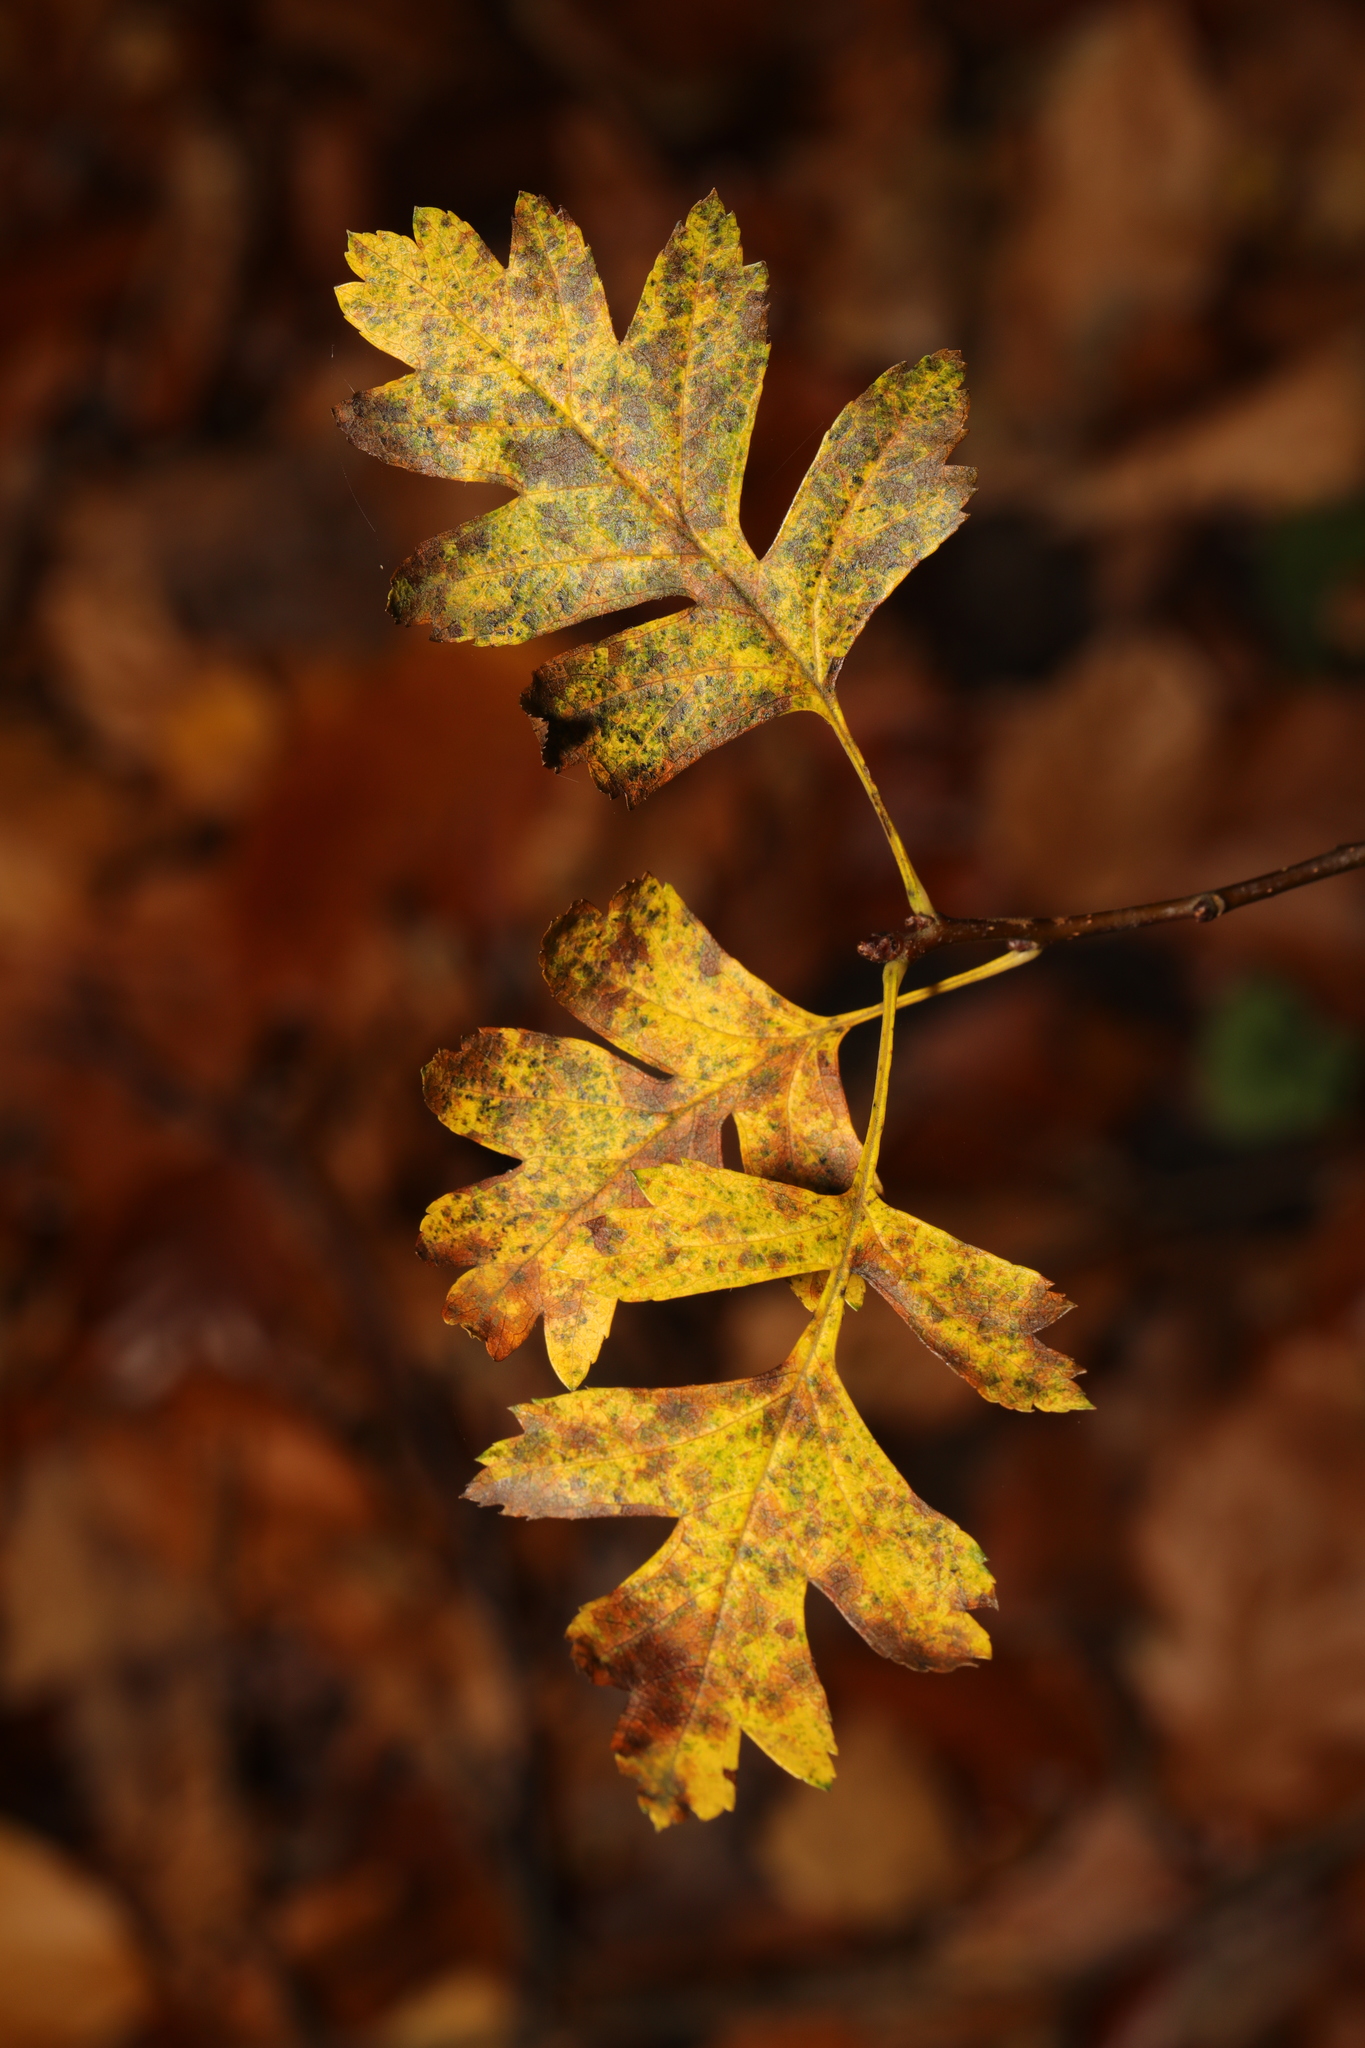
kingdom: Plantae
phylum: Tracheophyta
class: Magnoliopsida
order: Rosales
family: Rosaceae
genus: Crataegus
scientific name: Crataegus monogyna
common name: Hawthorn
